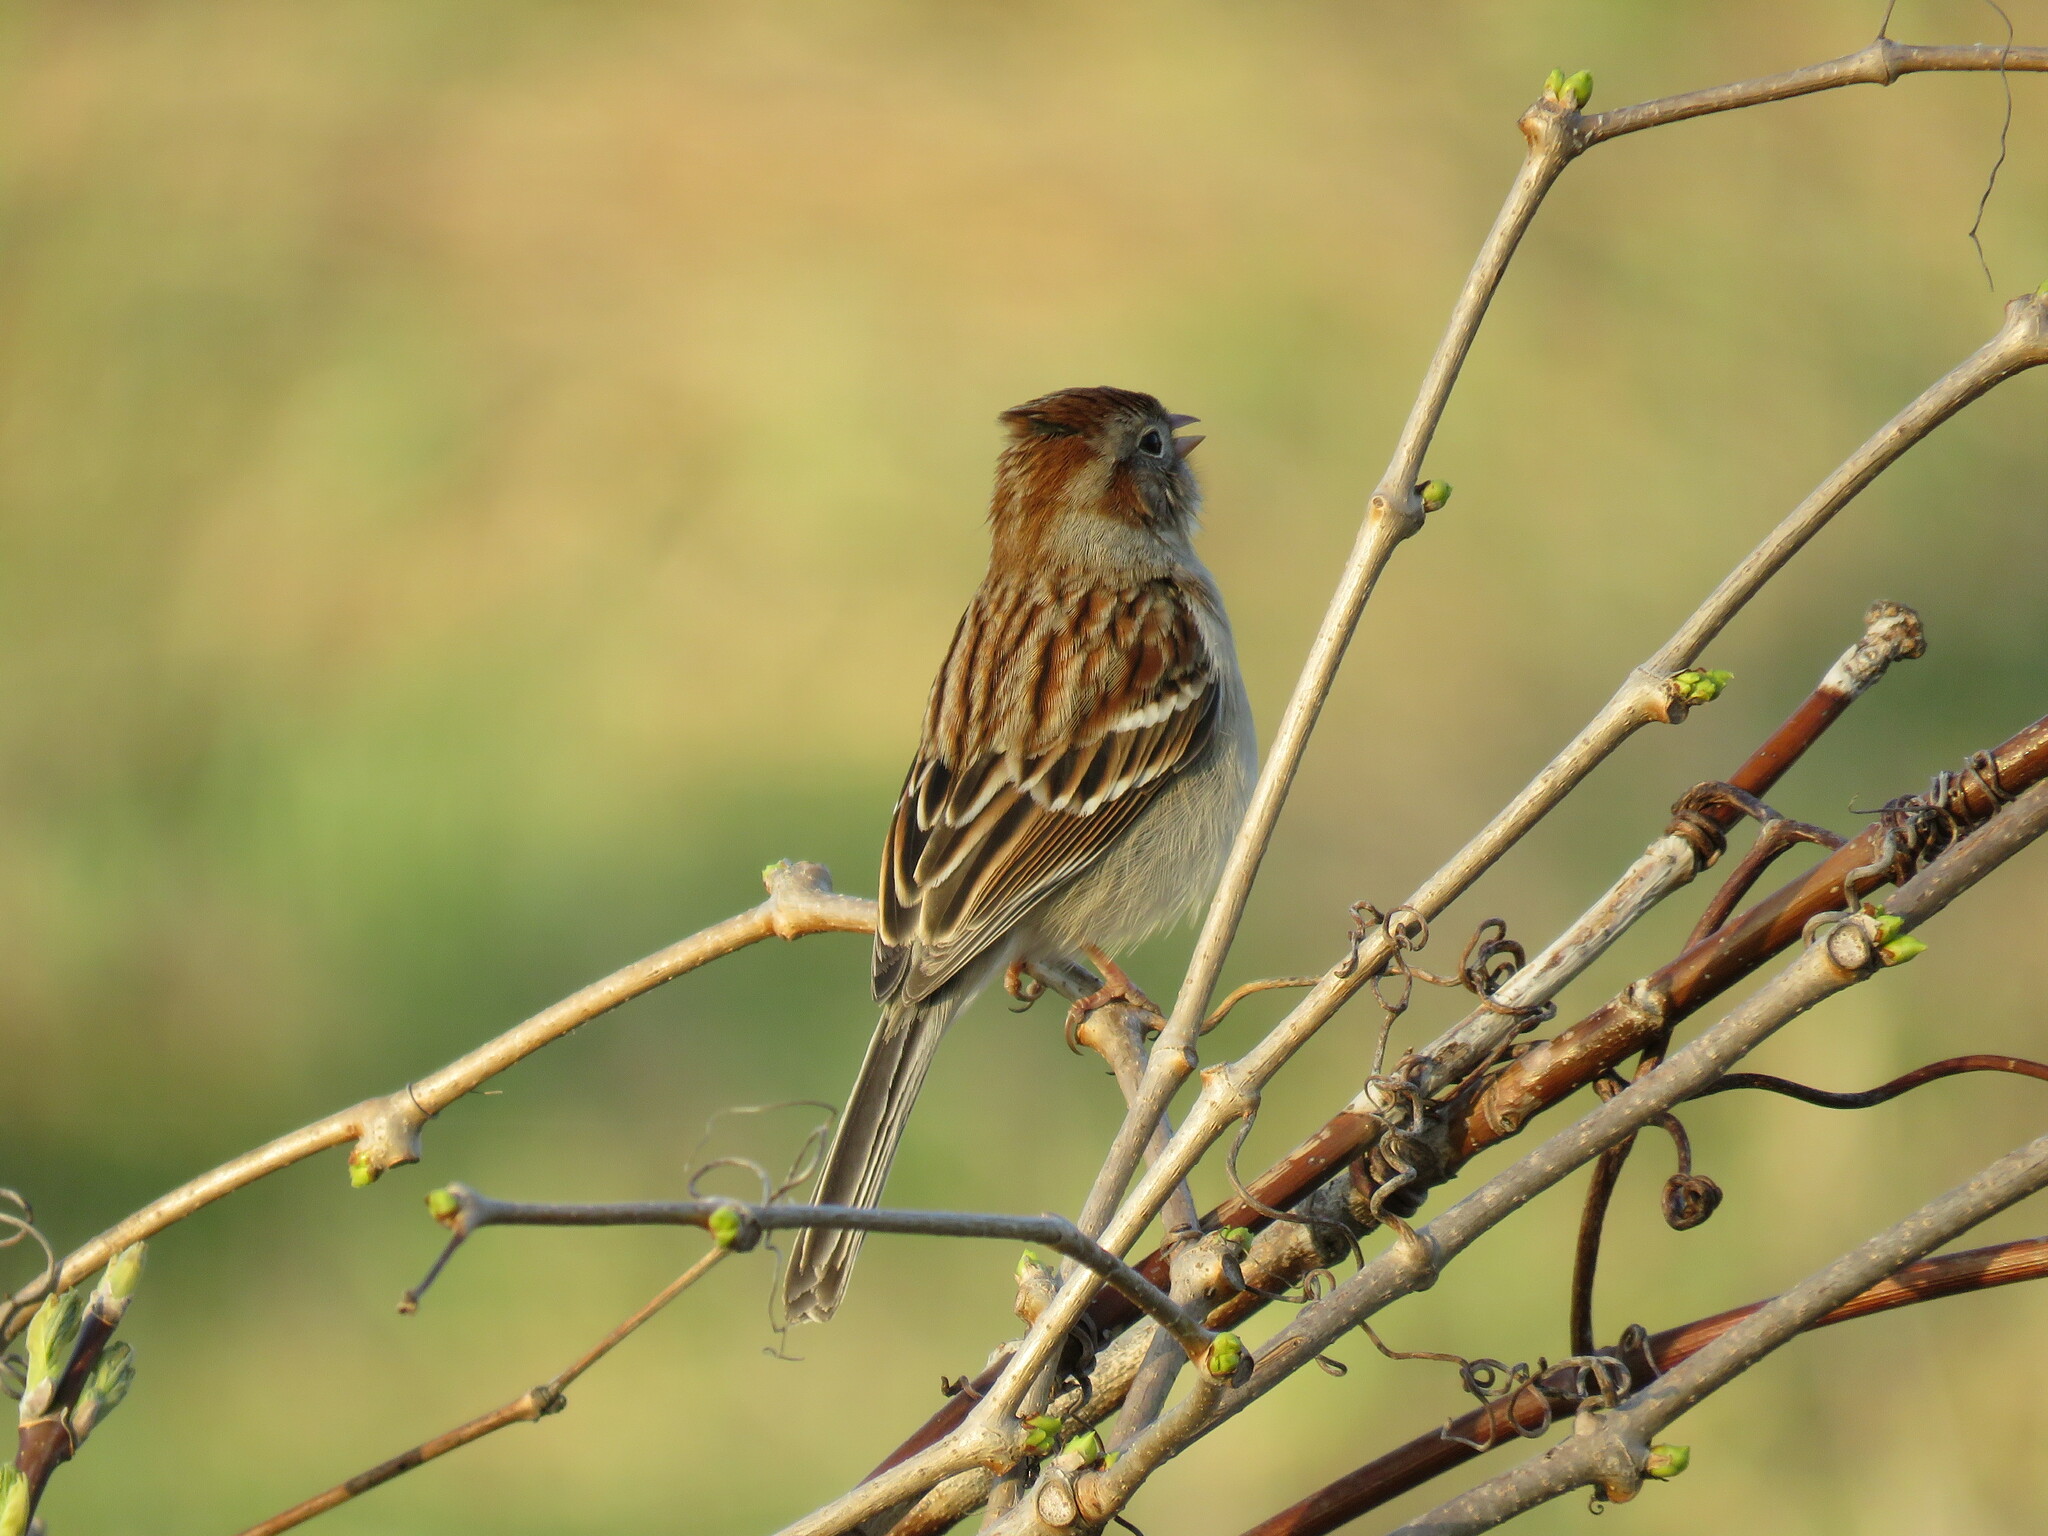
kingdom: Animalia
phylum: Chordata
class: Aves
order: Passeriformes
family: Passerellidae
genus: Spizella
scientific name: Spizella pusilla
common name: Field sparrow
